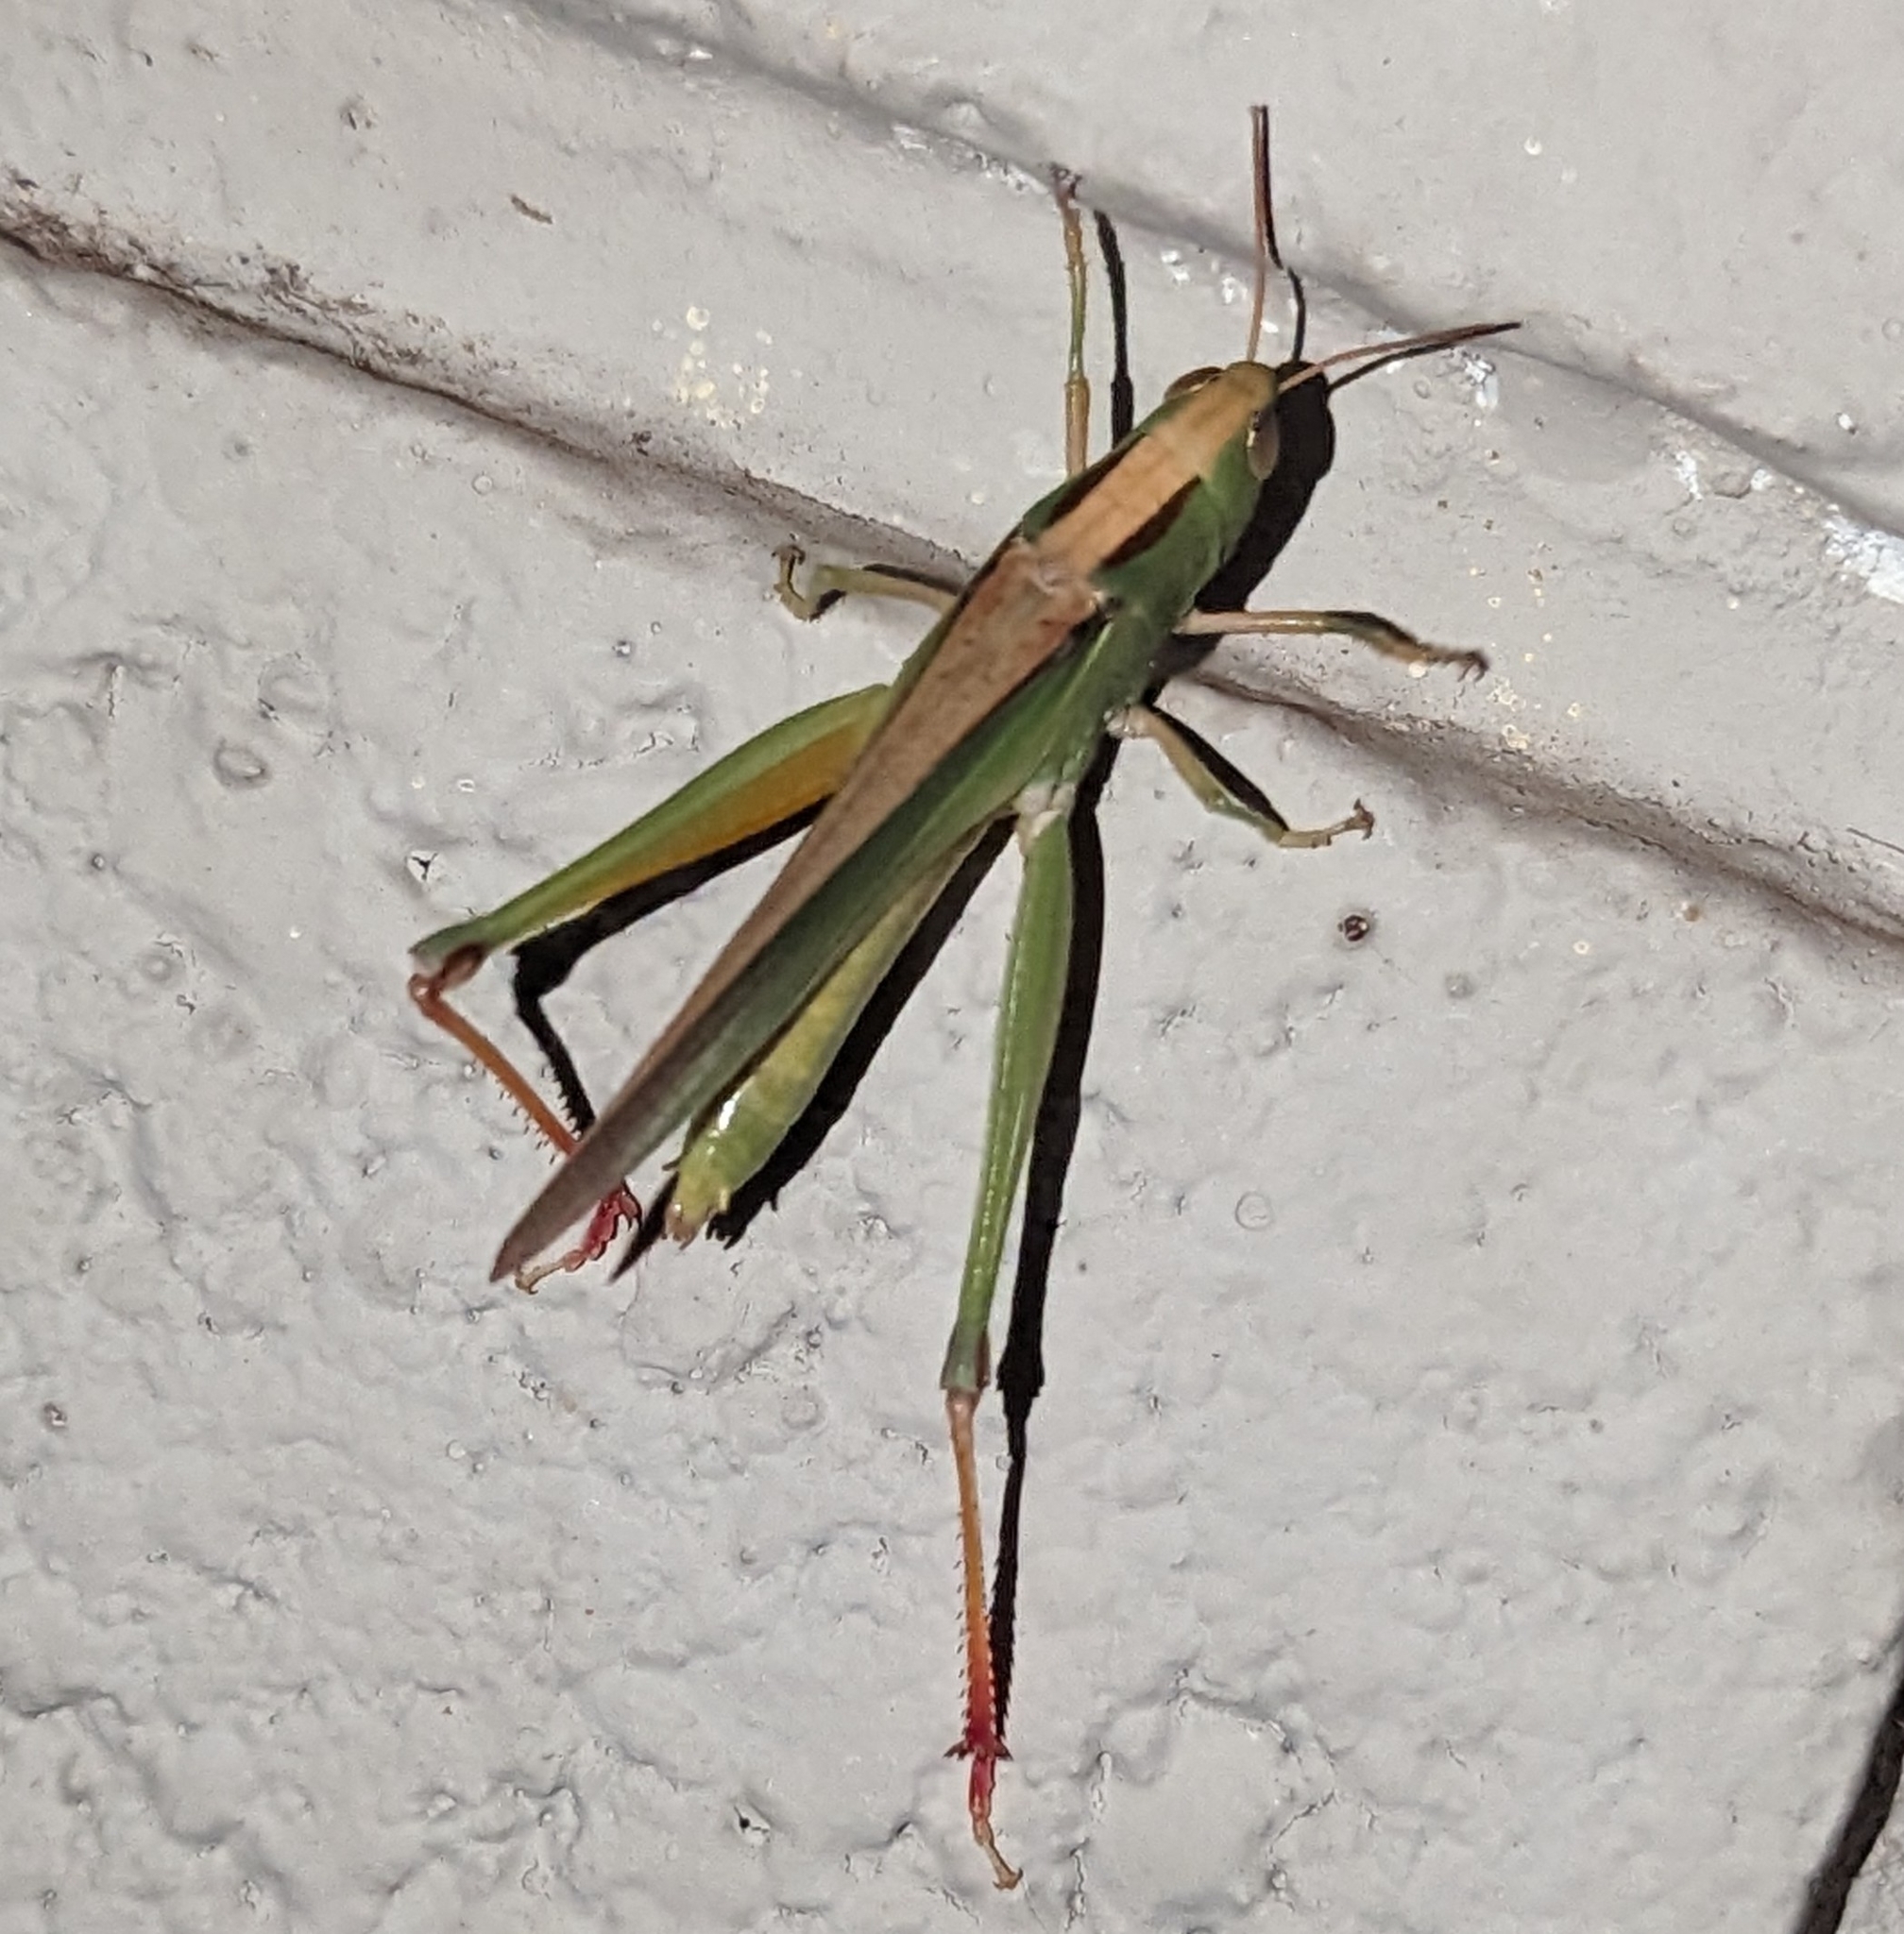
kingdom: Animalia
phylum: Arthropoda
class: Insecta
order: Orthoptera
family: Acrididae
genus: Paracinema
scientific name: Paracinema tricolor
